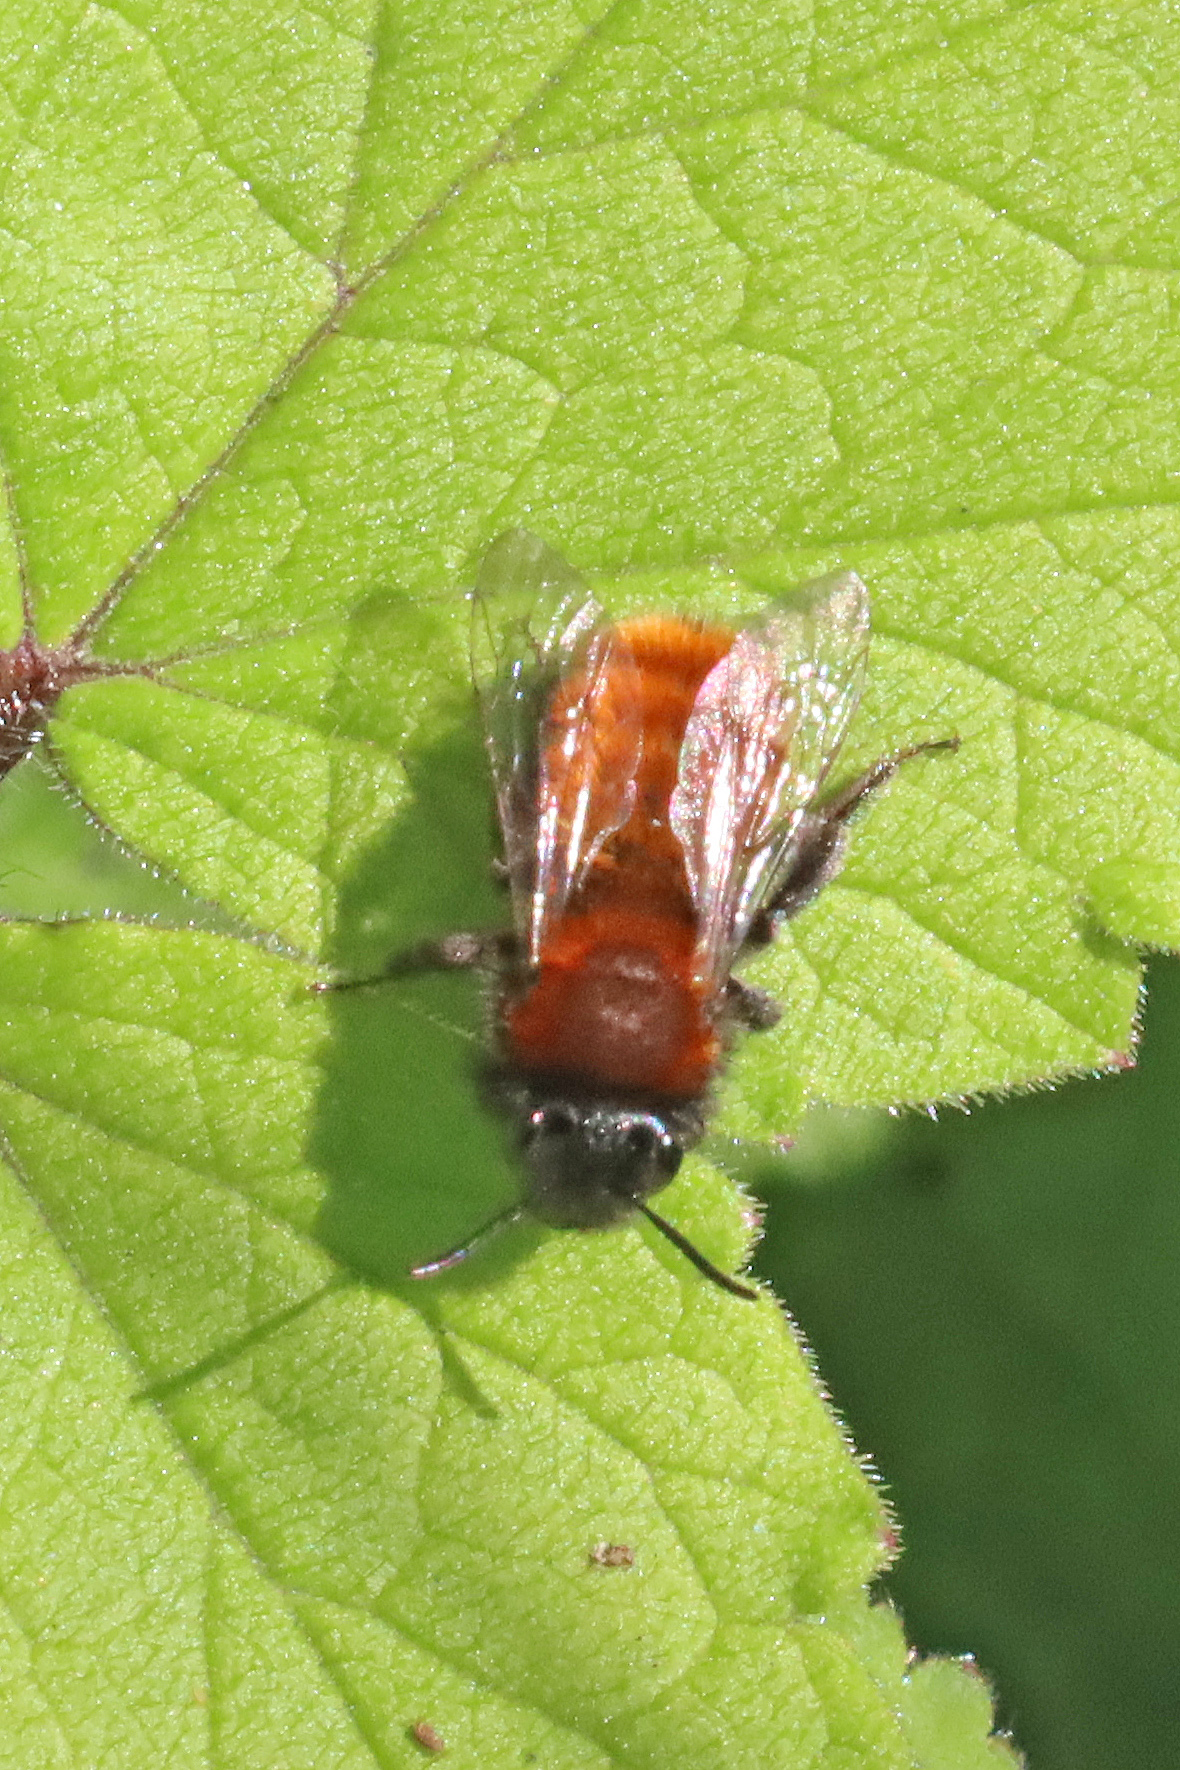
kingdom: Animalia
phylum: Arthropoda
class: Insecta
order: Hymenoptera
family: Andrenidae
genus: Andrena
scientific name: Andrena fulva
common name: Tawny mining bee
